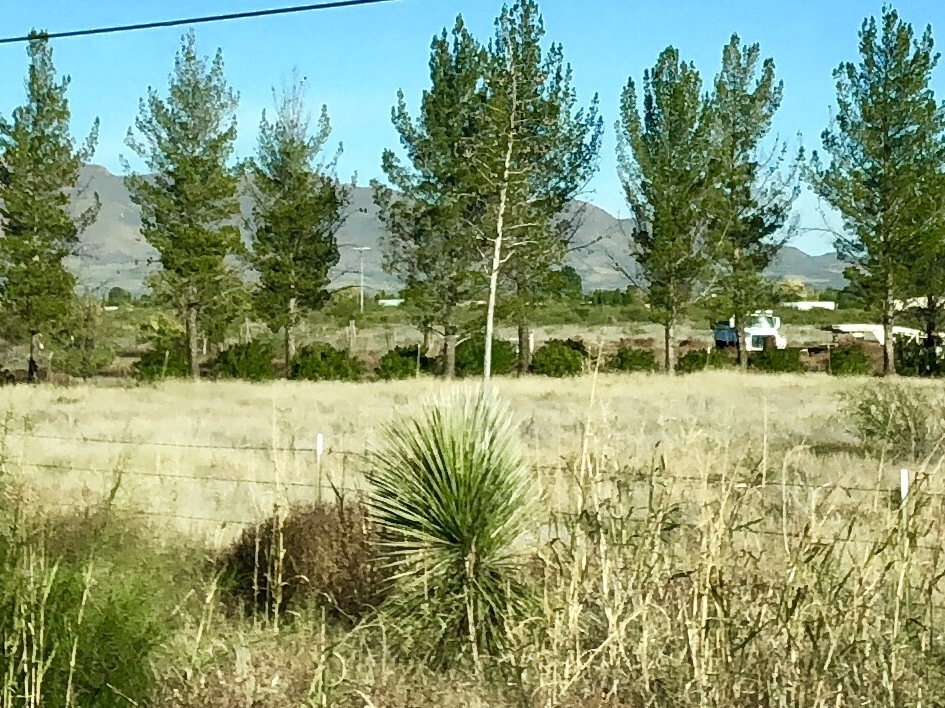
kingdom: Plantae
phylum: Tracheophyta
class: Liliopsida
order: Asparagales
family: Asparagaceae
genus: Yucca
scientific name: Yucca elata
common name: Palmella
